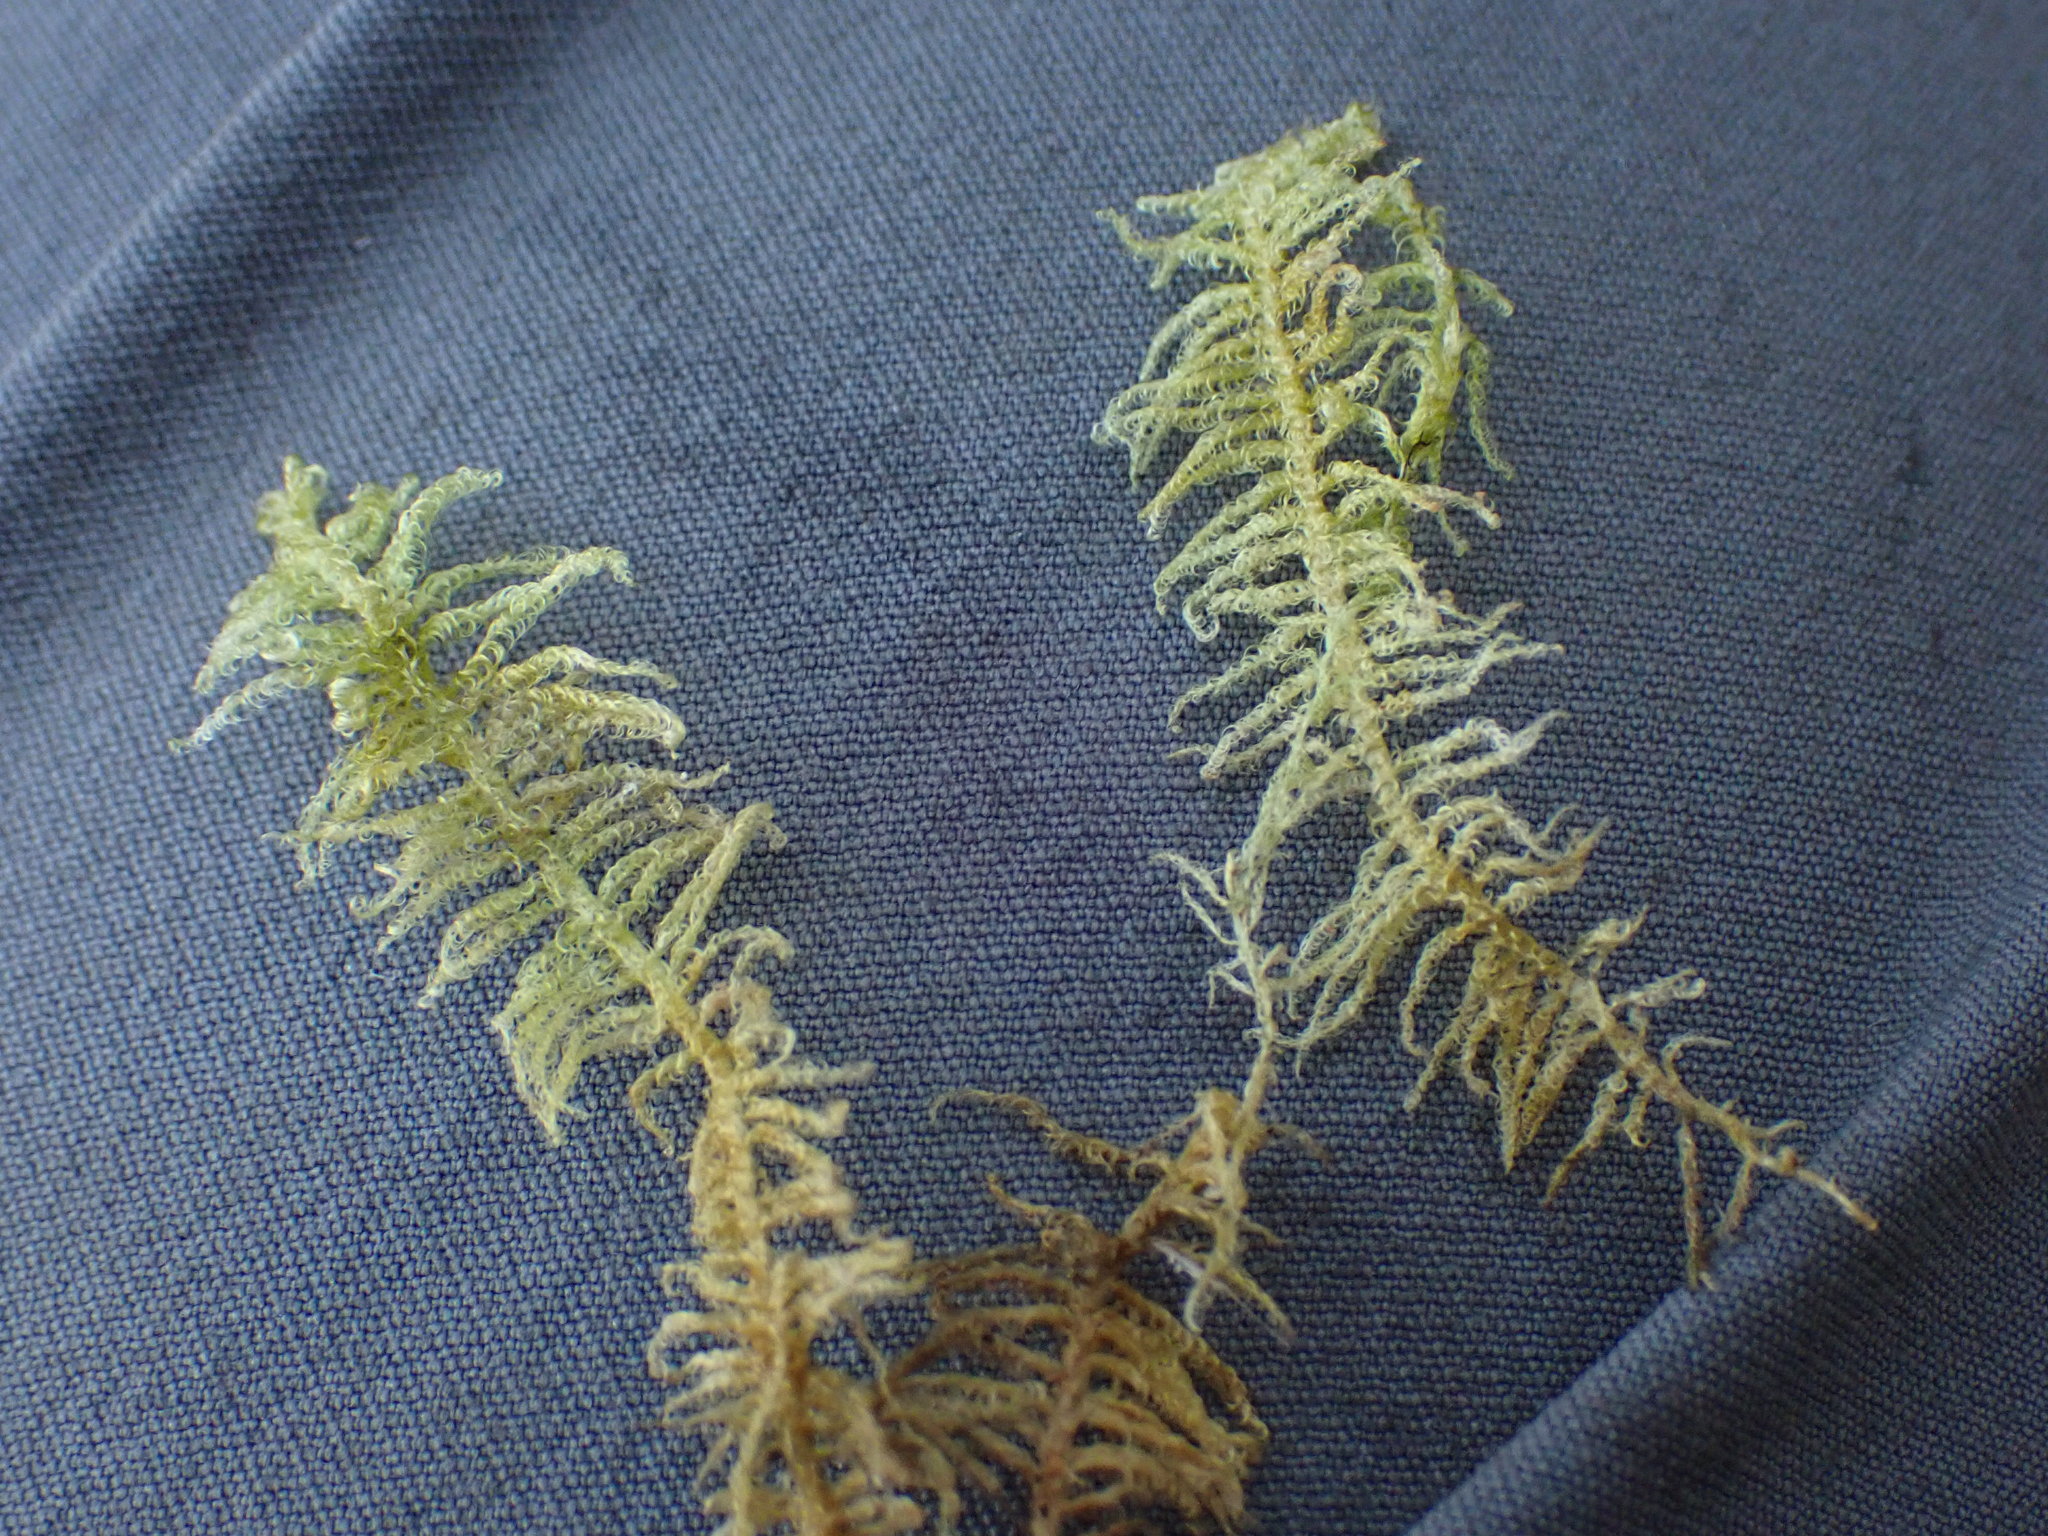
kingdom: Plantae
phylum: Bryophyta
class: Bryopsida
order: Hypnales
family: Pylaisiaceae
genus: Ptilium
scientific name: Ptilium crista-castrensis
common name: Knight's plume moss
